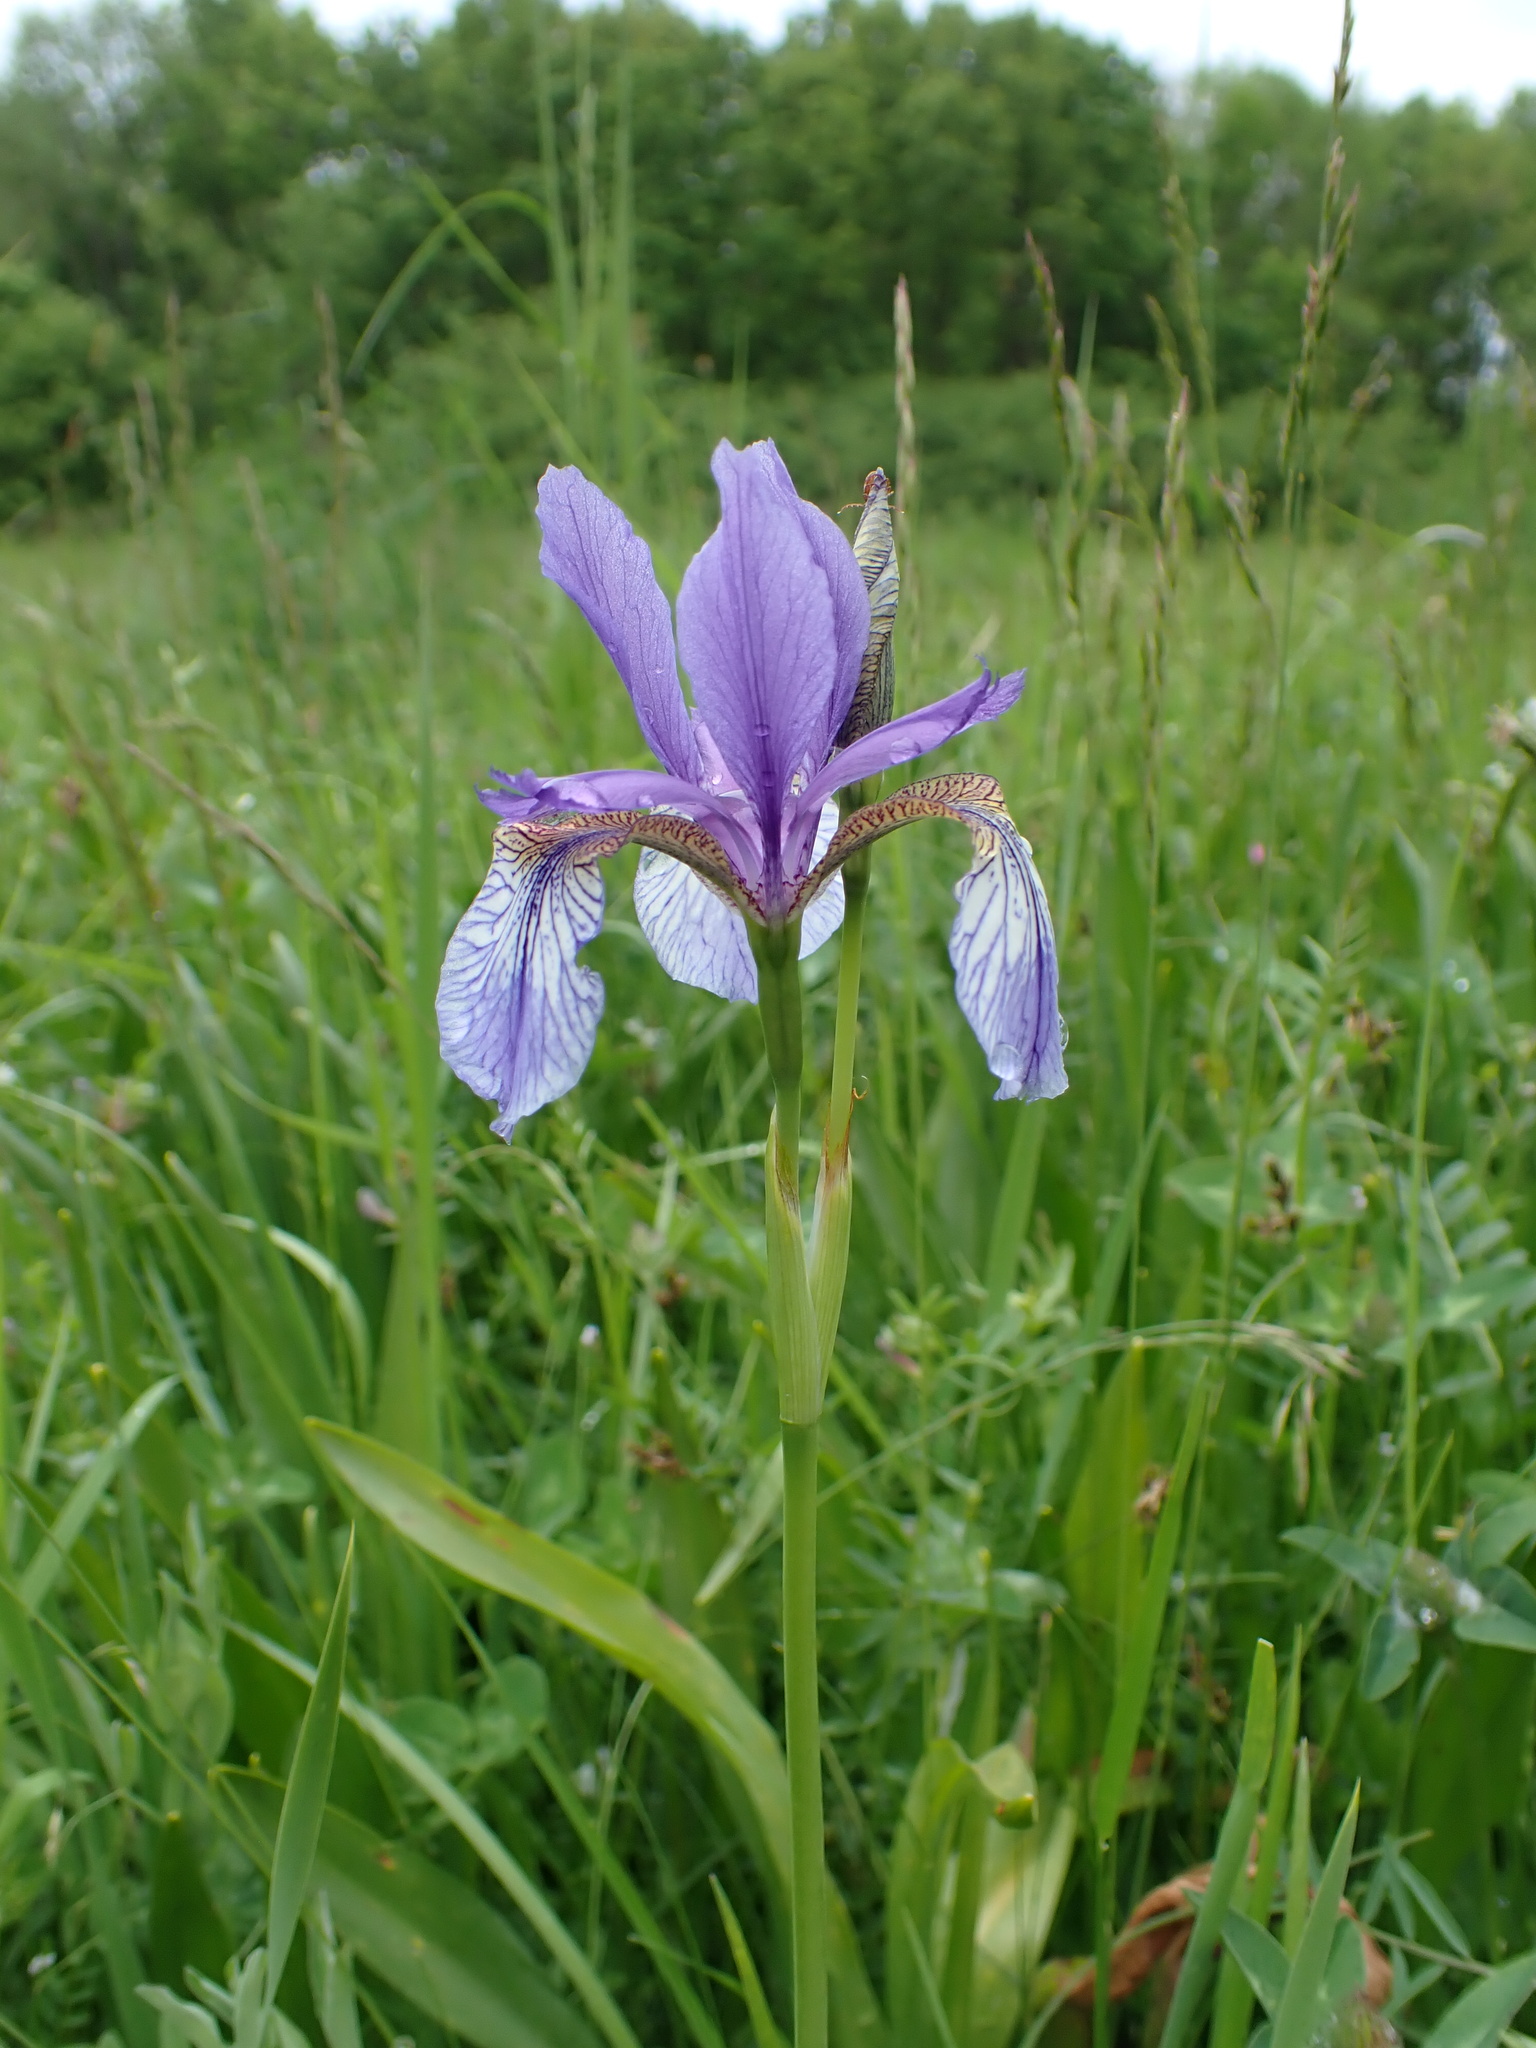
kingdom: Plantae
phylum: Tracheophyta
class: Liliopsida
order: Asparagales
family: Iridaceae
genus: Iris
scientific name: Iris sibirica
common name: Siberian iris
